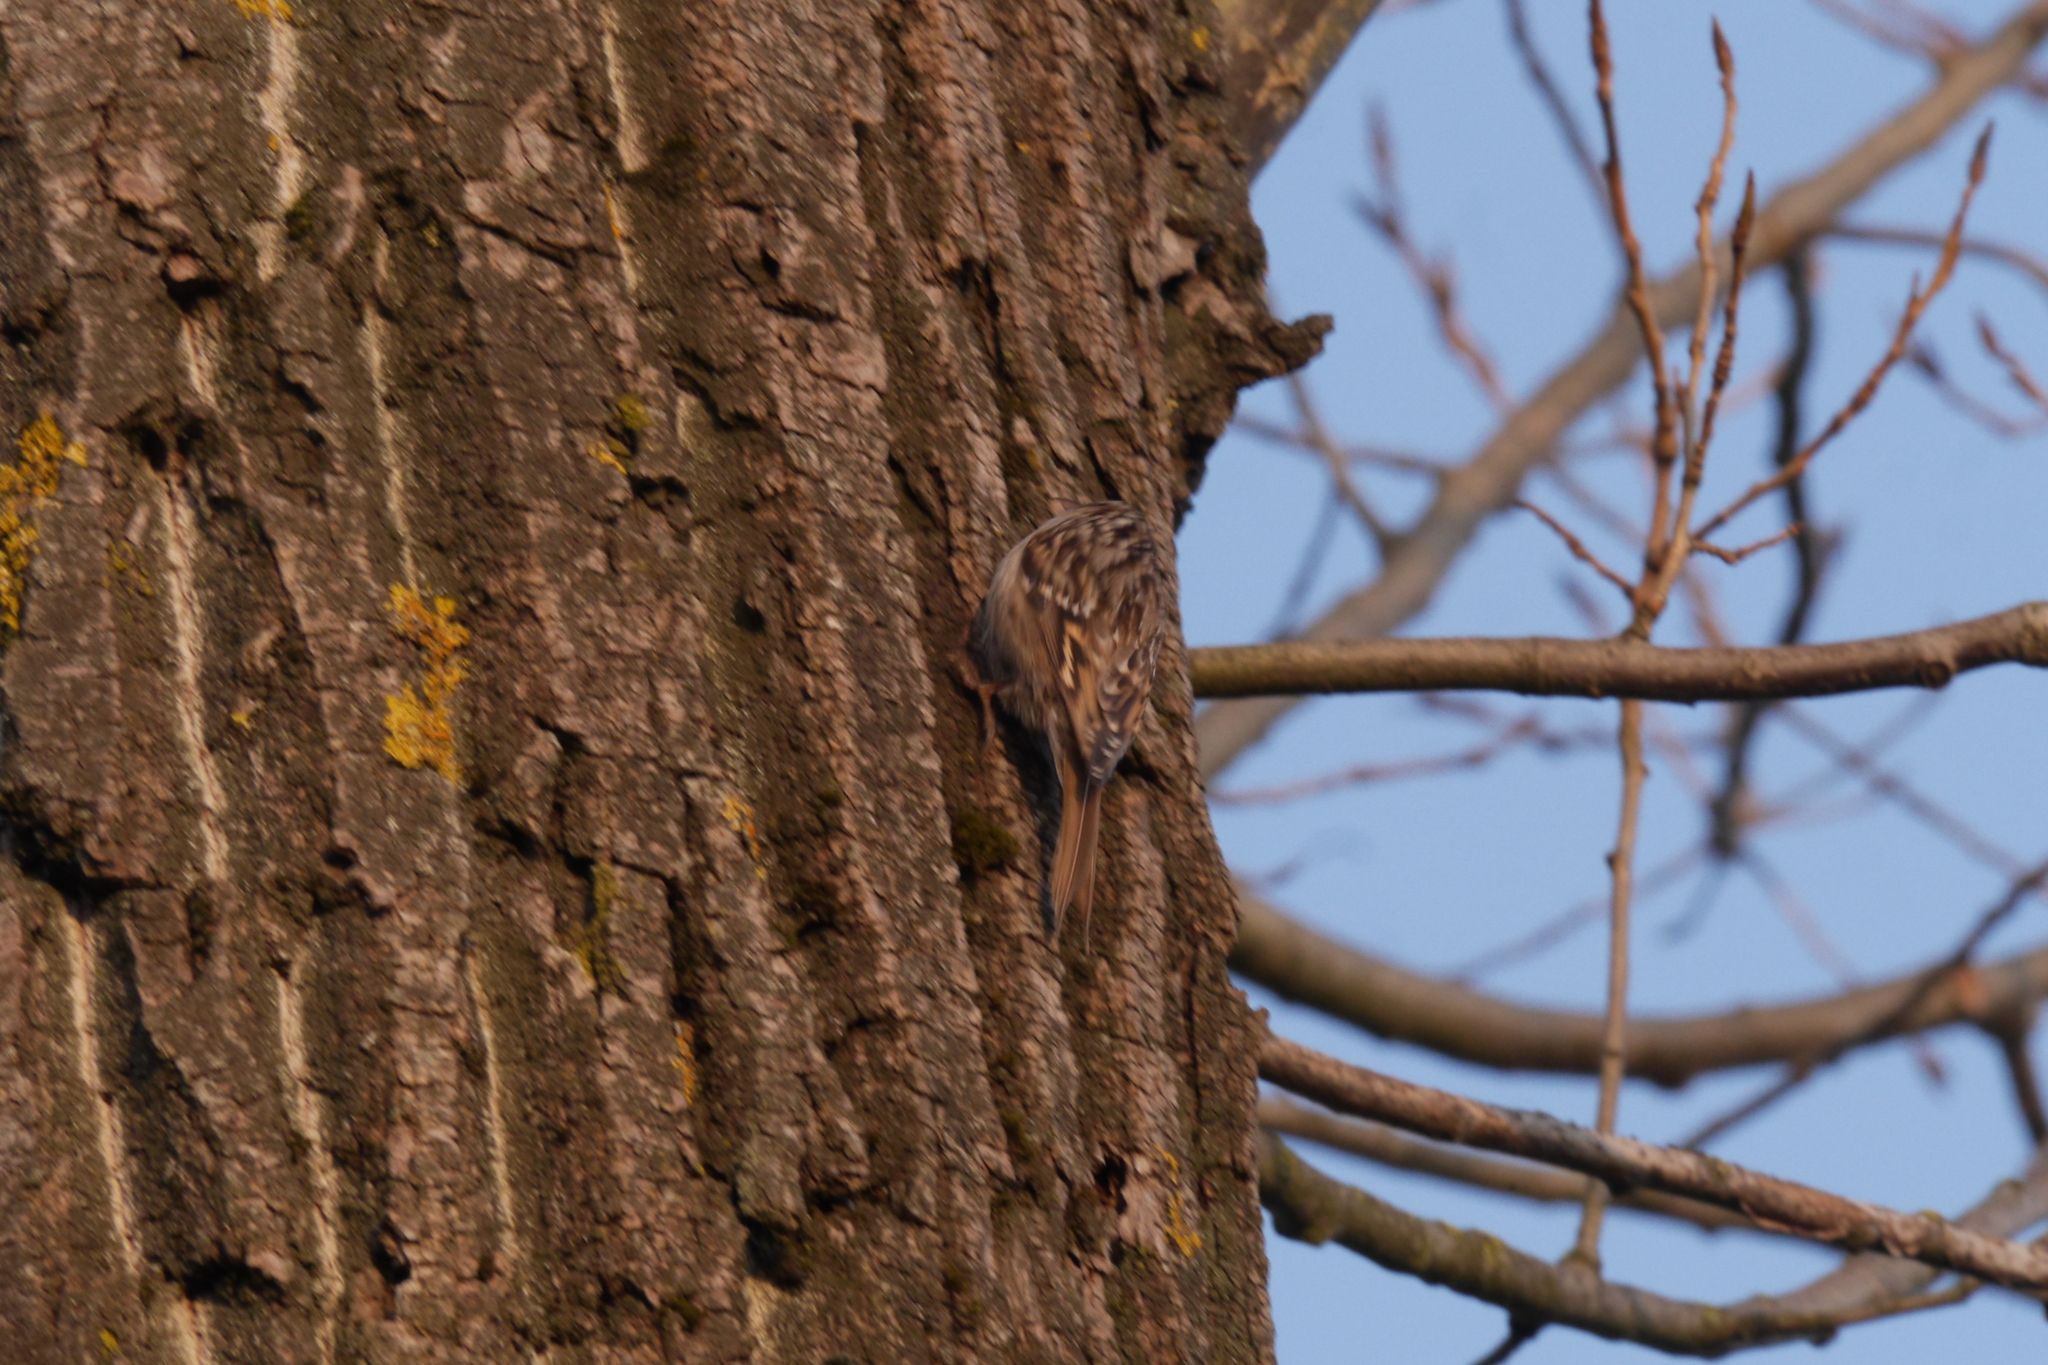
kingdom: Animalia
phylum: Chordata
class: Aves
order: Passeriformes
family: Certhiidae
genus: Certhia
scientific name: Certhia brachydactyla
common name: Short-toed treecreeper
